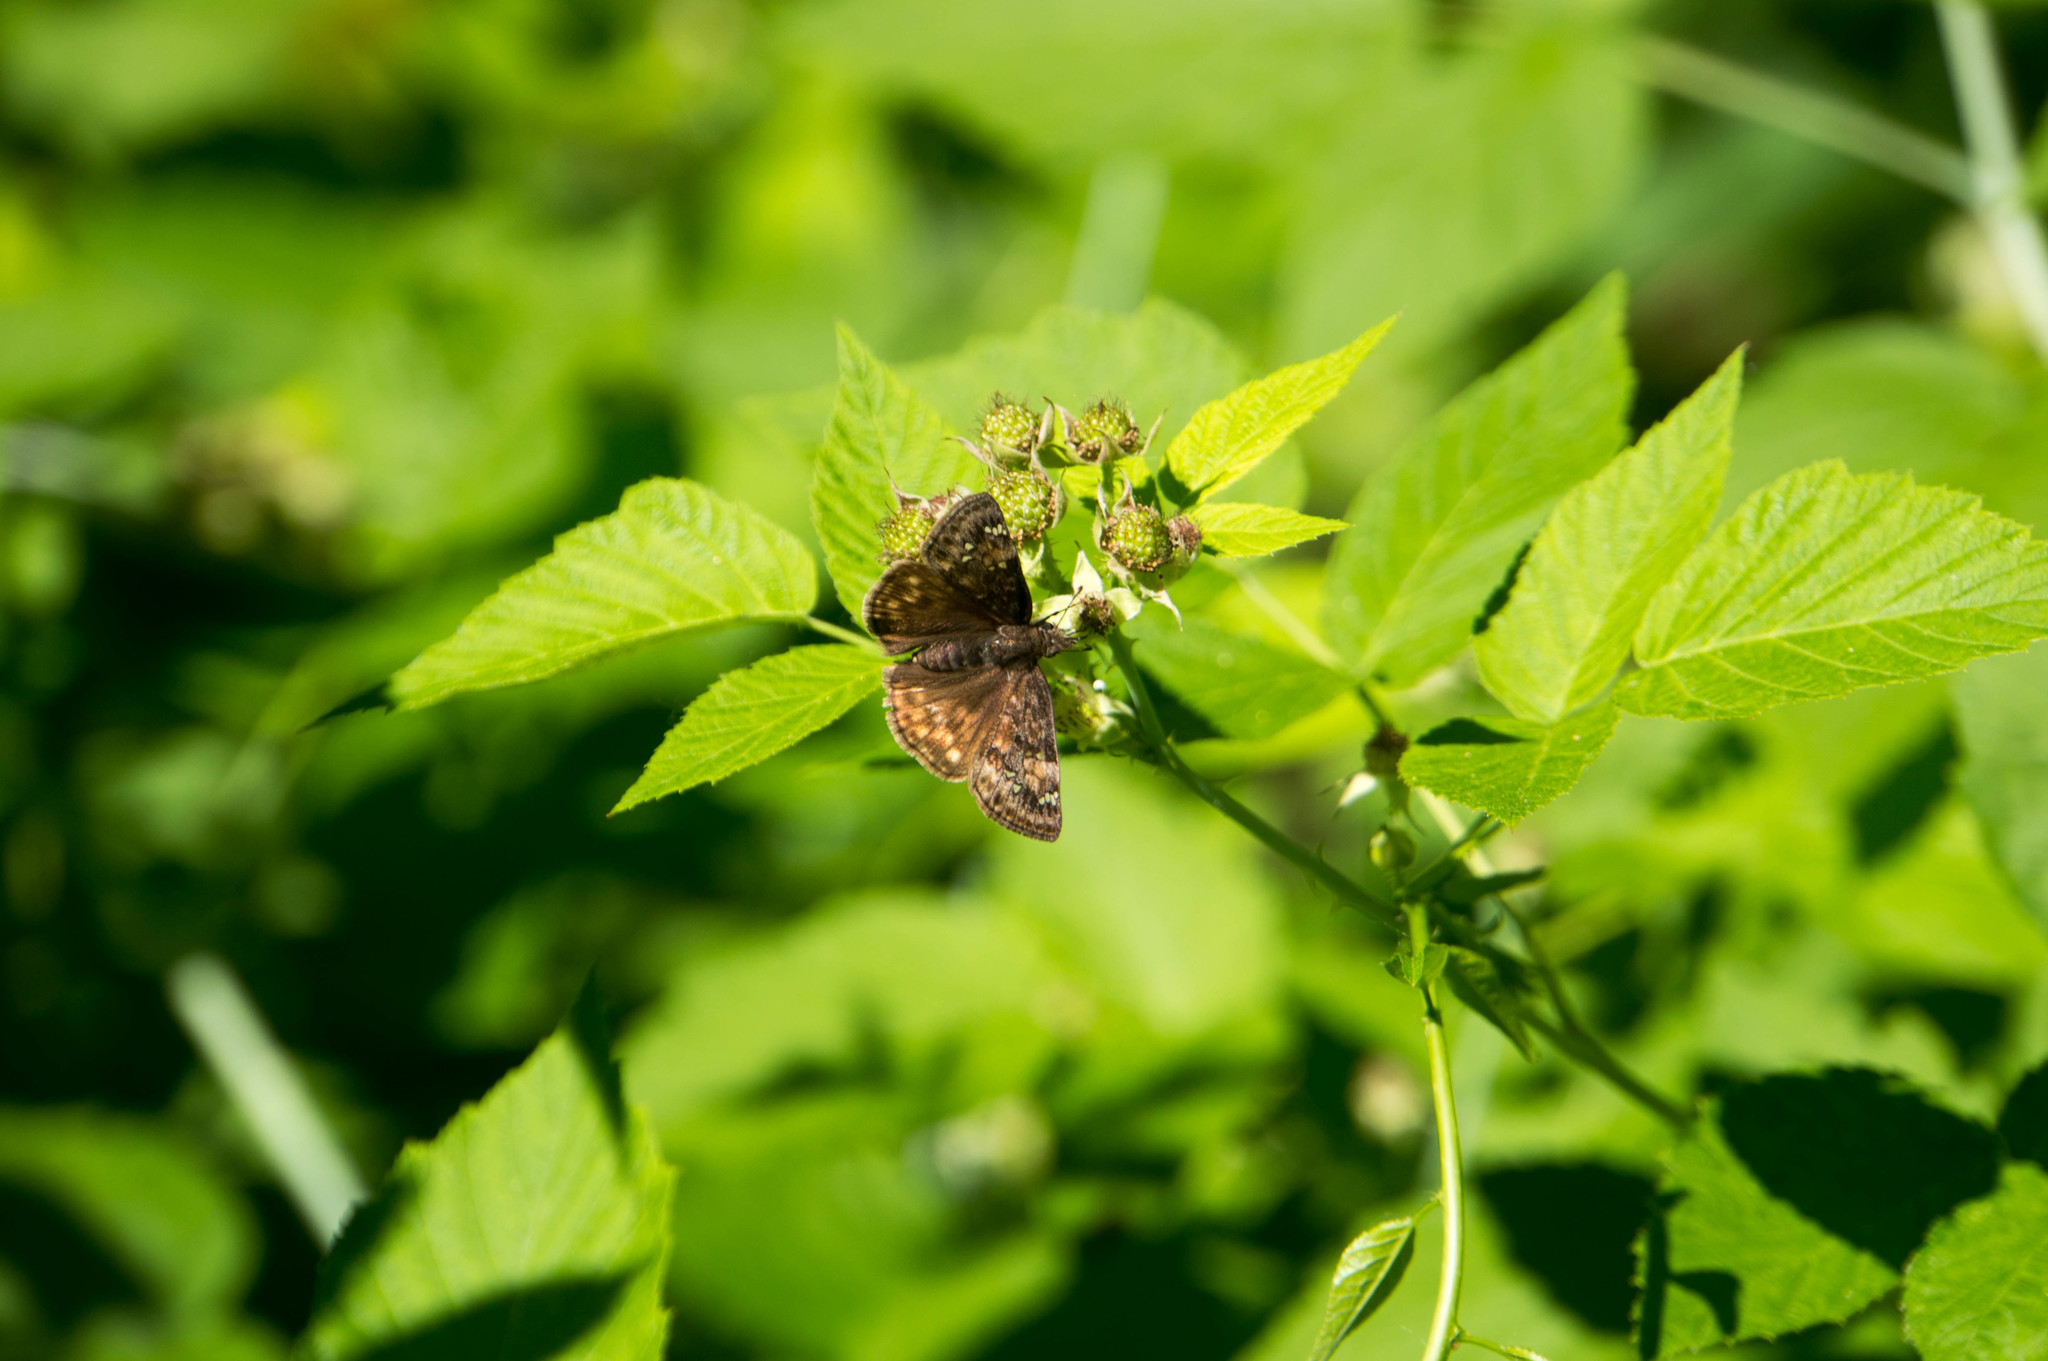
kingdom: Animalia
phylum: Arthropoda
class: Insecta
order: Lepidoptera
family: Hesperiidae
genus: Erynnis
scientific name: Erynnis juvenalis
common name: Juvenal's duskywing
